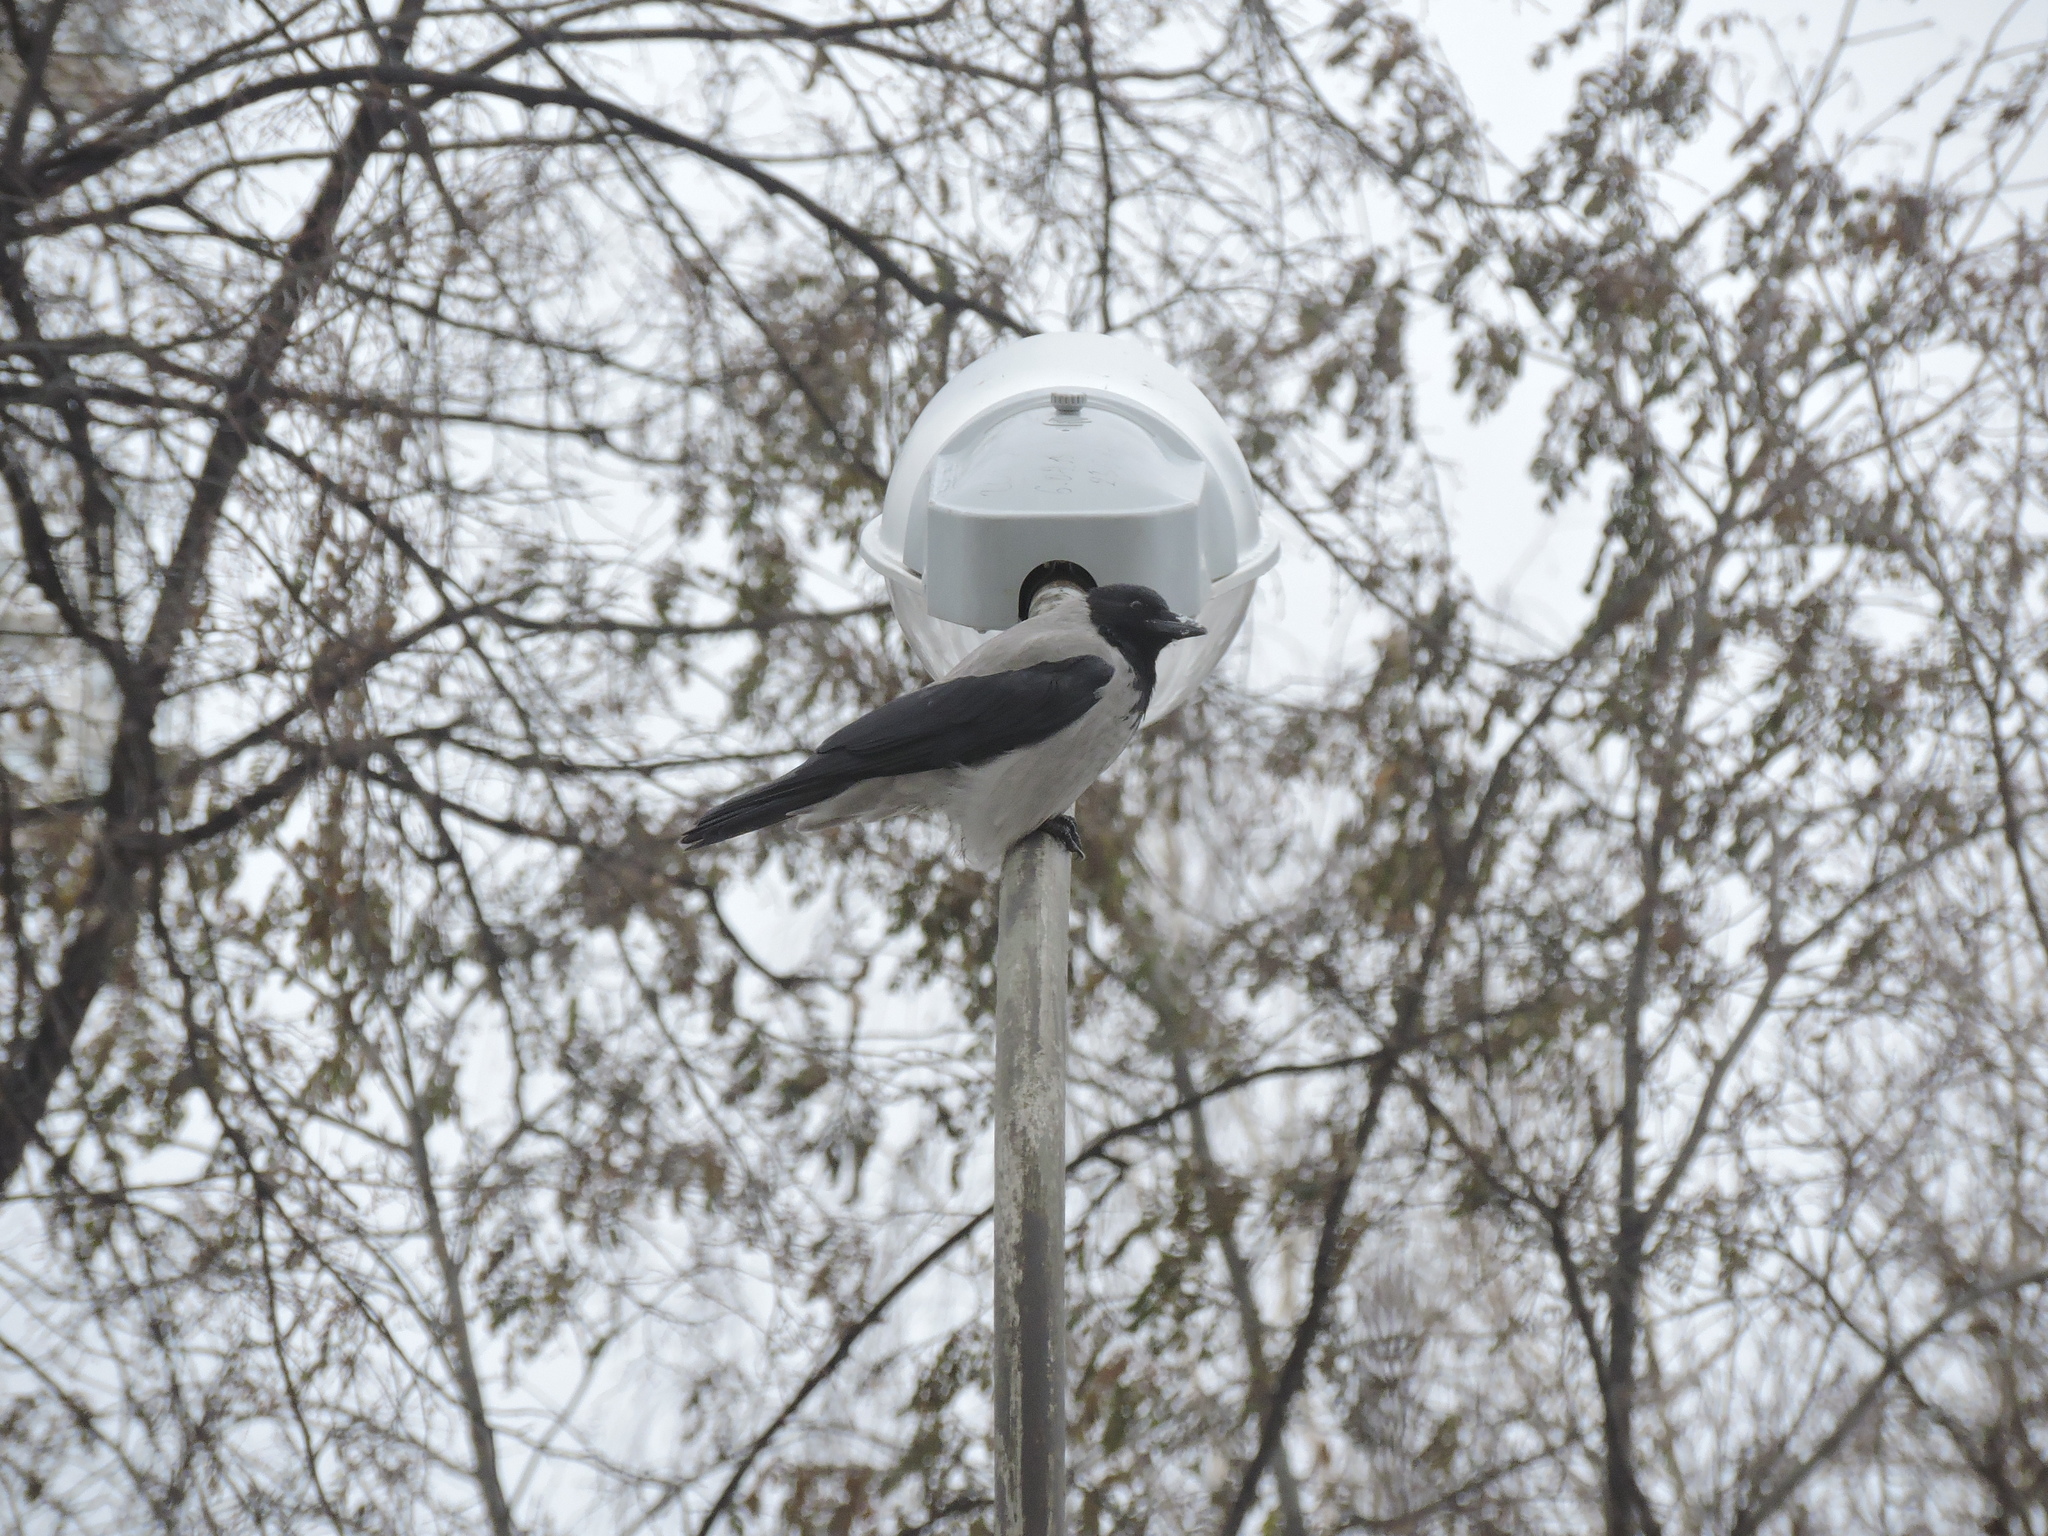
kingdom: Animalia
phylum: Chordata
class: Aves
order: Passeriformes
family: Corvidae
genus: Corvus
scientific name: Corvus cornix
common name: Hooded crow
